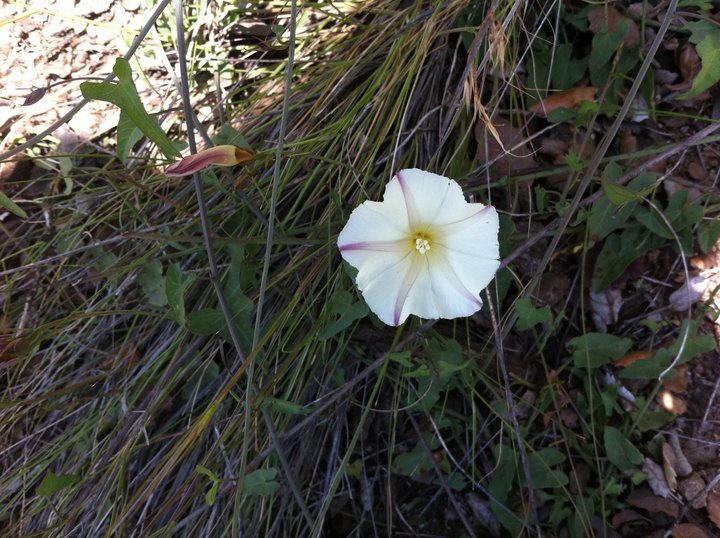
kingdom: Plantae
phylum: Tracheophyta
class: Magnoliopsida
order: Solanales
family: Convolvulaceae
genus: Convolvulus
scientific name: Convolvulus arvensis
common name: Field bindweed
